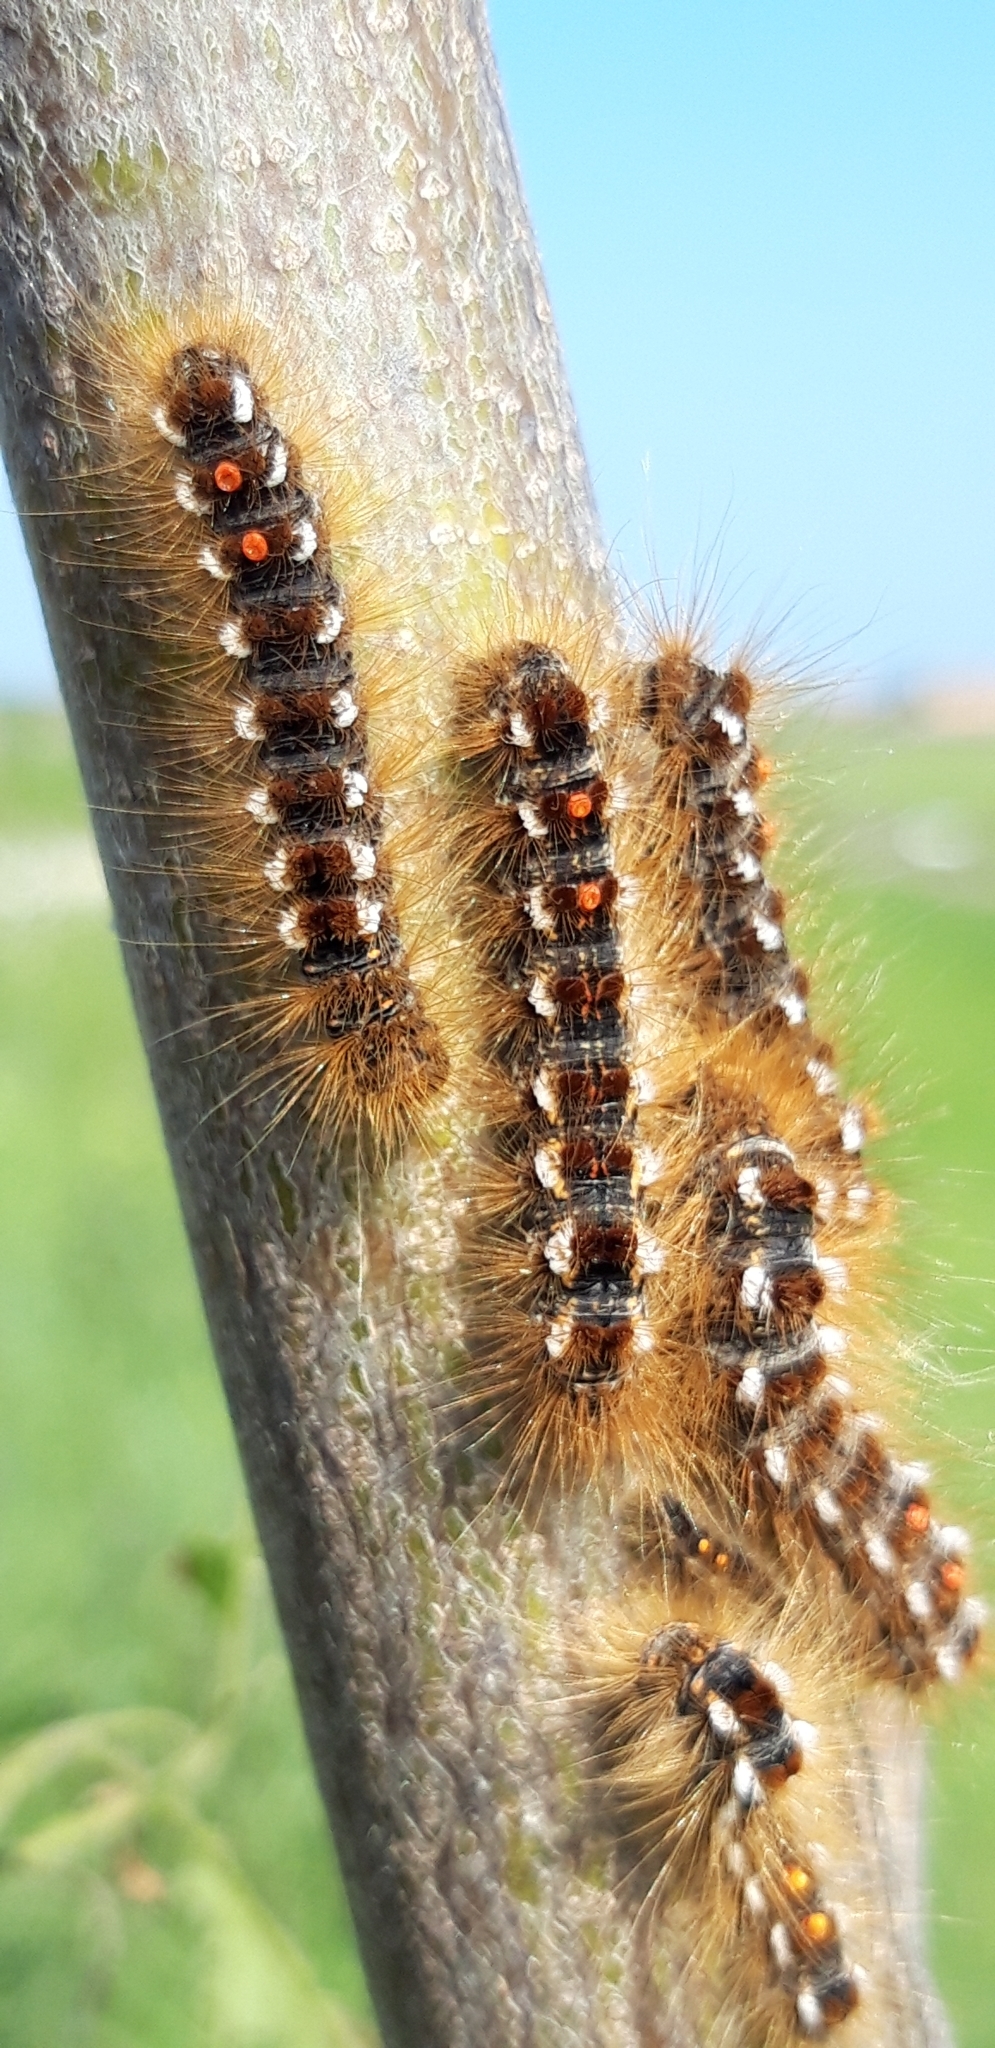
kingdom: Animalia
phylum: Arthropoda
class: Insecta
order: Lepidoptera
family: Erebidae
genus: Euproctis
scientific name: Euproctis chrysorrhoea
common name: Brown-tail
